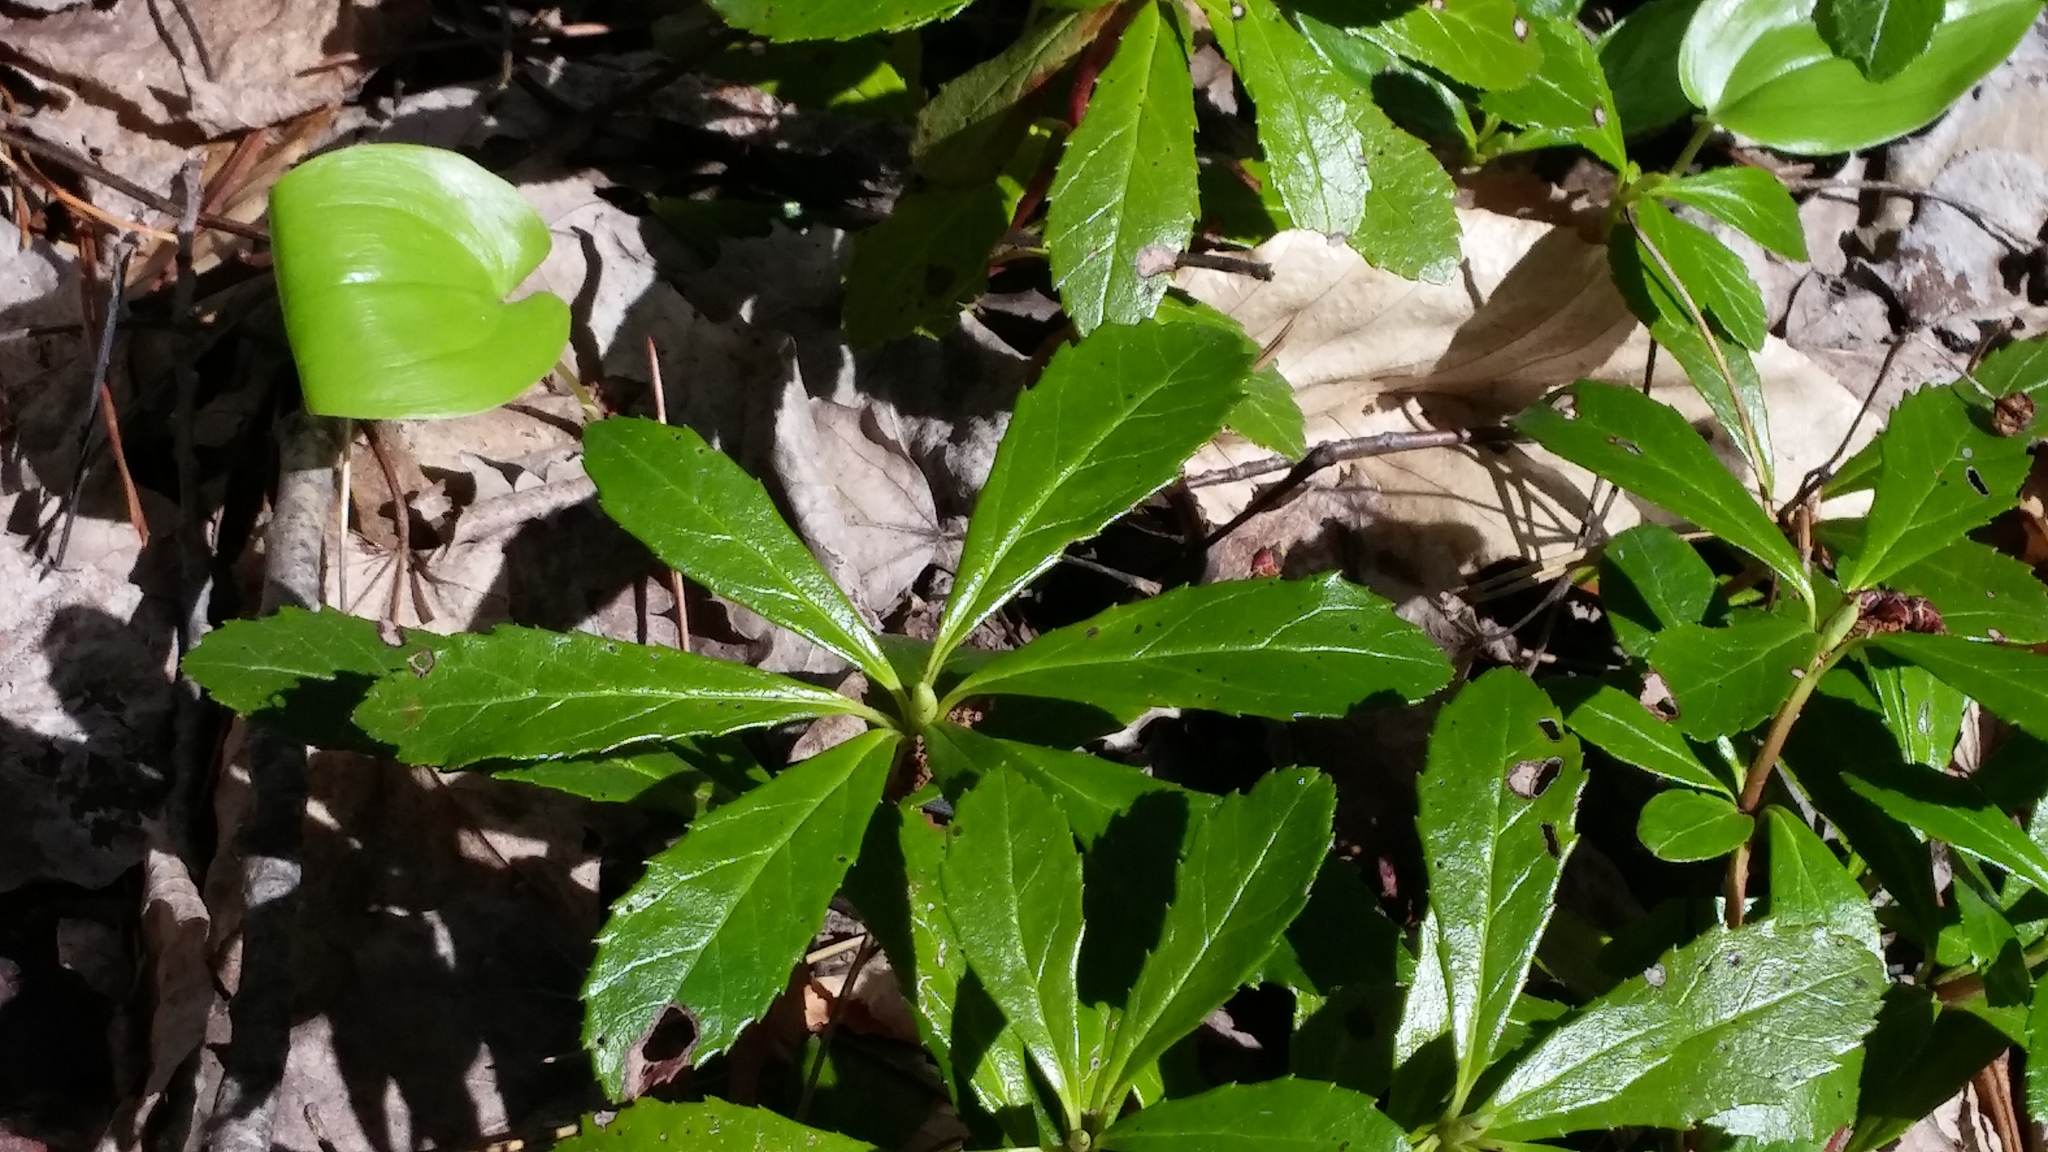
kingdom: Plantae
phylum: Tracheophyta
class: Magnoliopsida
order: Ericales
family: Ericaceae
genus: Chimaphila
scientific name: Chimaphila umbellata
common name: Pipsissewa
